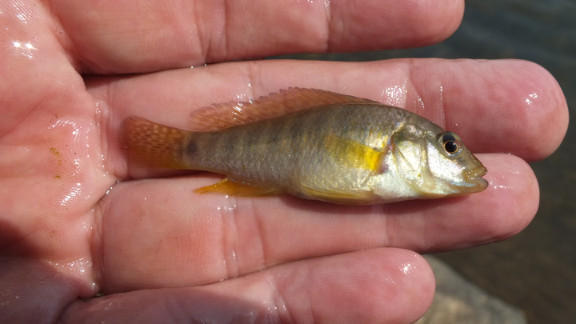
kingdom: Animalia
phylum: Chordata
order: Perciformes
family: Cichlidae
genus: Pseudocrenilabrus
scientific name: Pseudocrenilabrus philander
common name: Southern mouthbrooder
